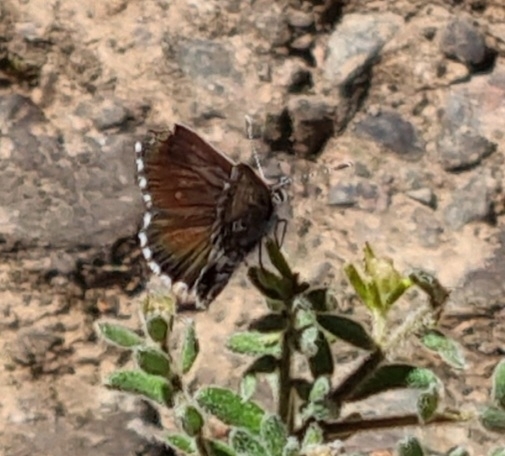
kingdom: Animalia
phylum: Arthropoda
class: Insecta
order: Lepidoptera
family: Lycaenidae
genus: Neolucia
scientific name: Neolucia agricola
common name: Fringed blue
